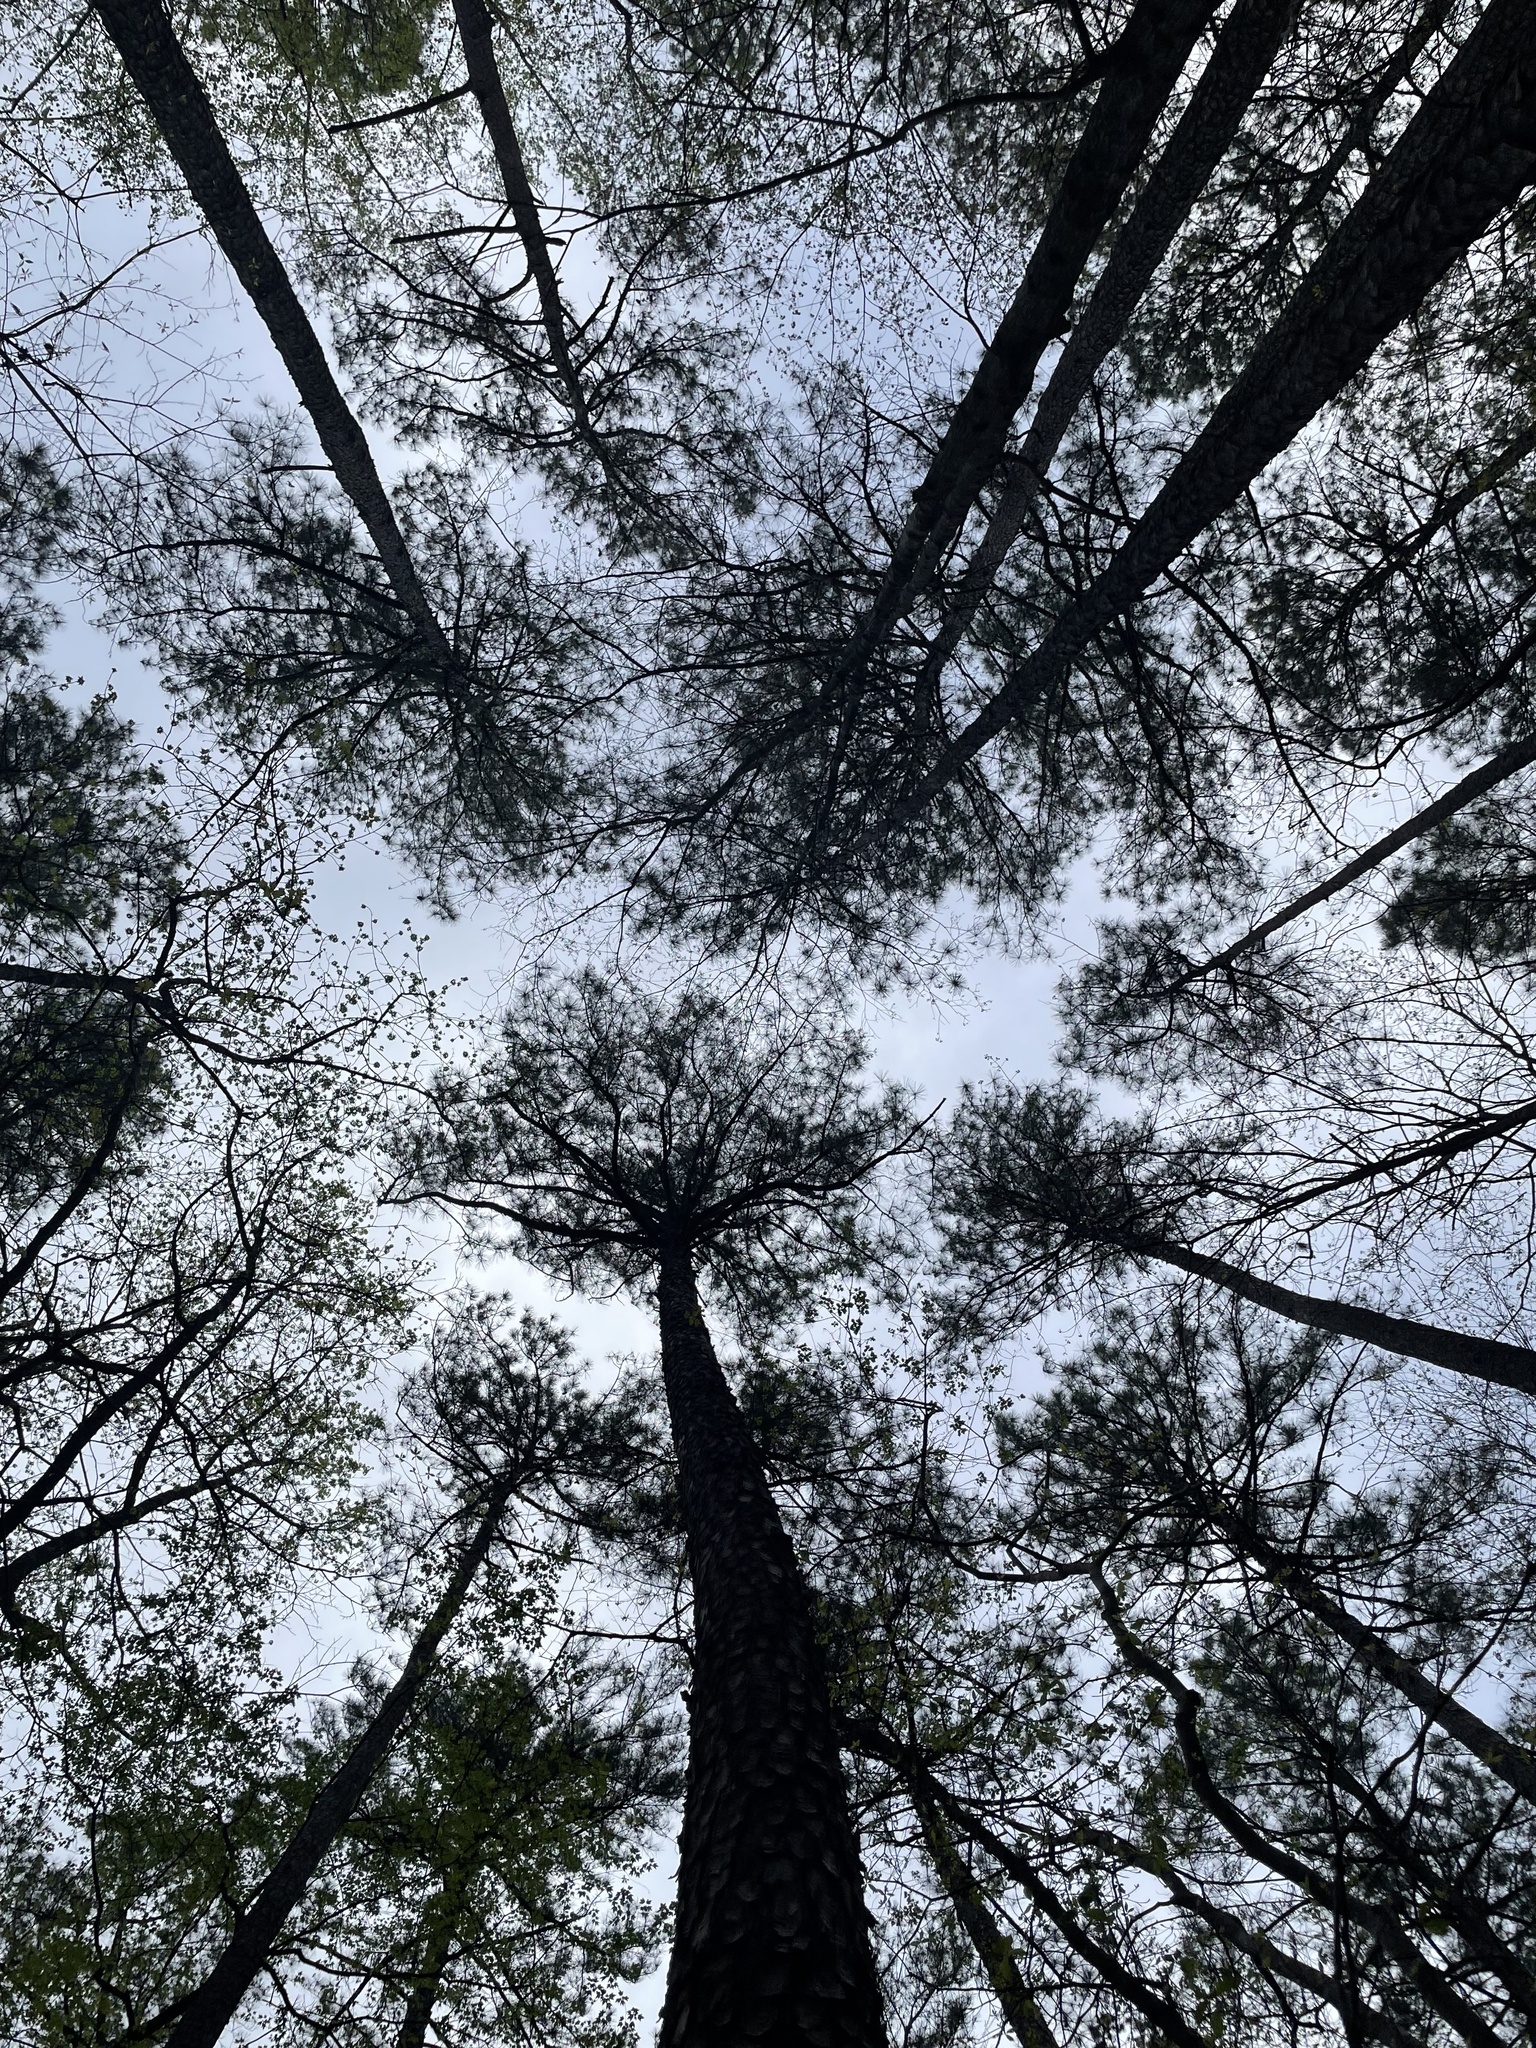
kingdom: Plantae
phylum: Tracheophyta
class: Pinopsida
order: Pinales
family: Pinaceae
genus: Pinus
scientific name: Pinus taeda
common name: Loblolly pine
